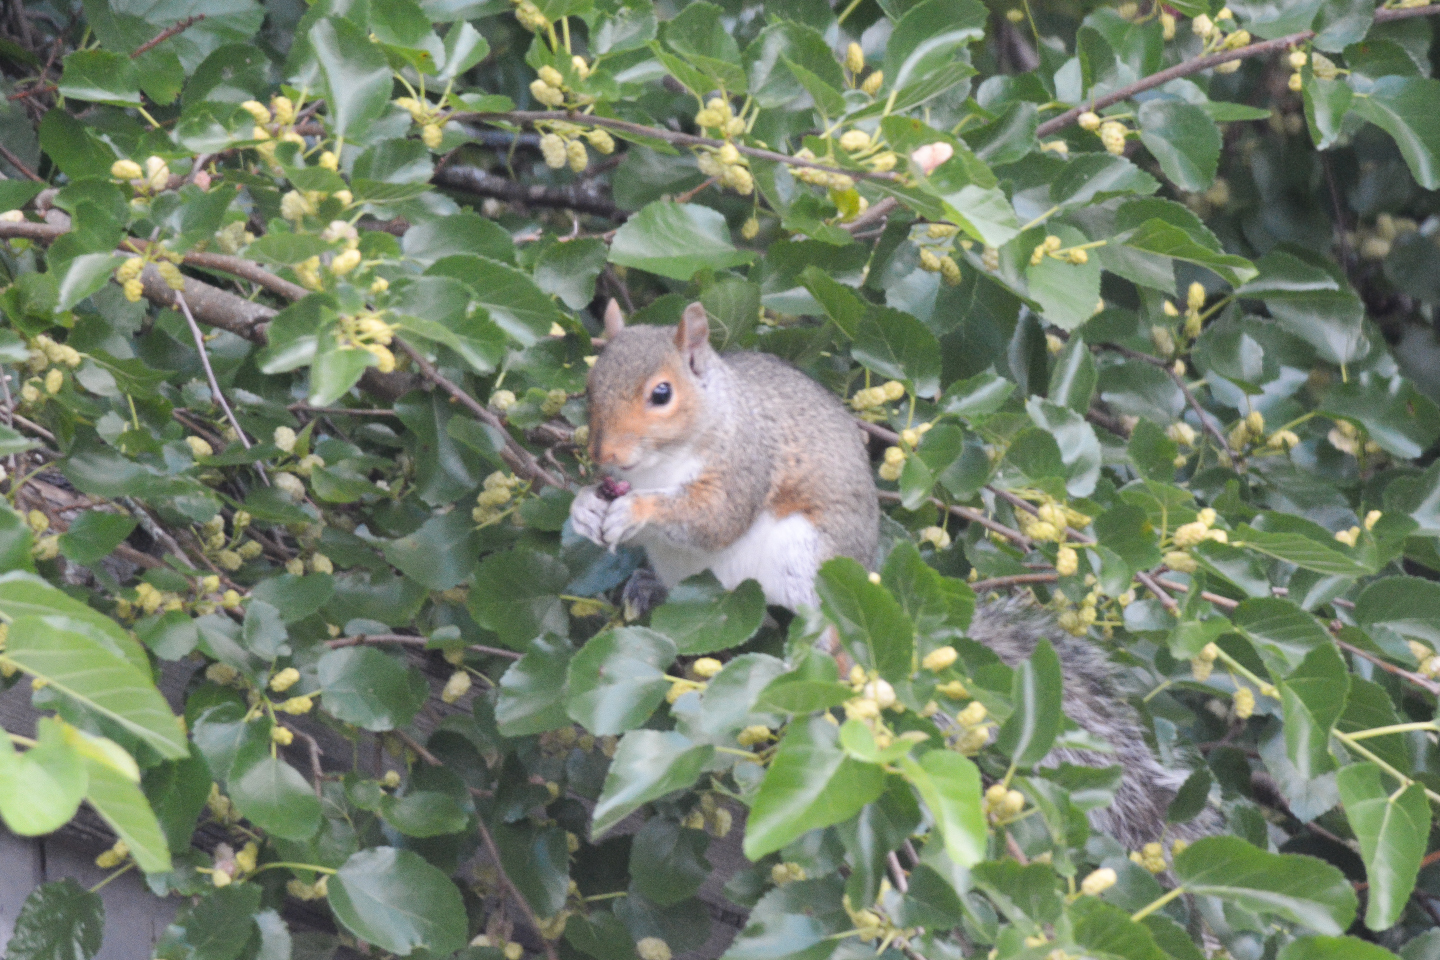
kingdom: Animalia
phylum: Chordata
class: Mammalia
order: Rodentia
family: Sciuridae
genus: Sciurus
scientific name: Sciurus carolinensis
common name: Eastern gray squirrel
